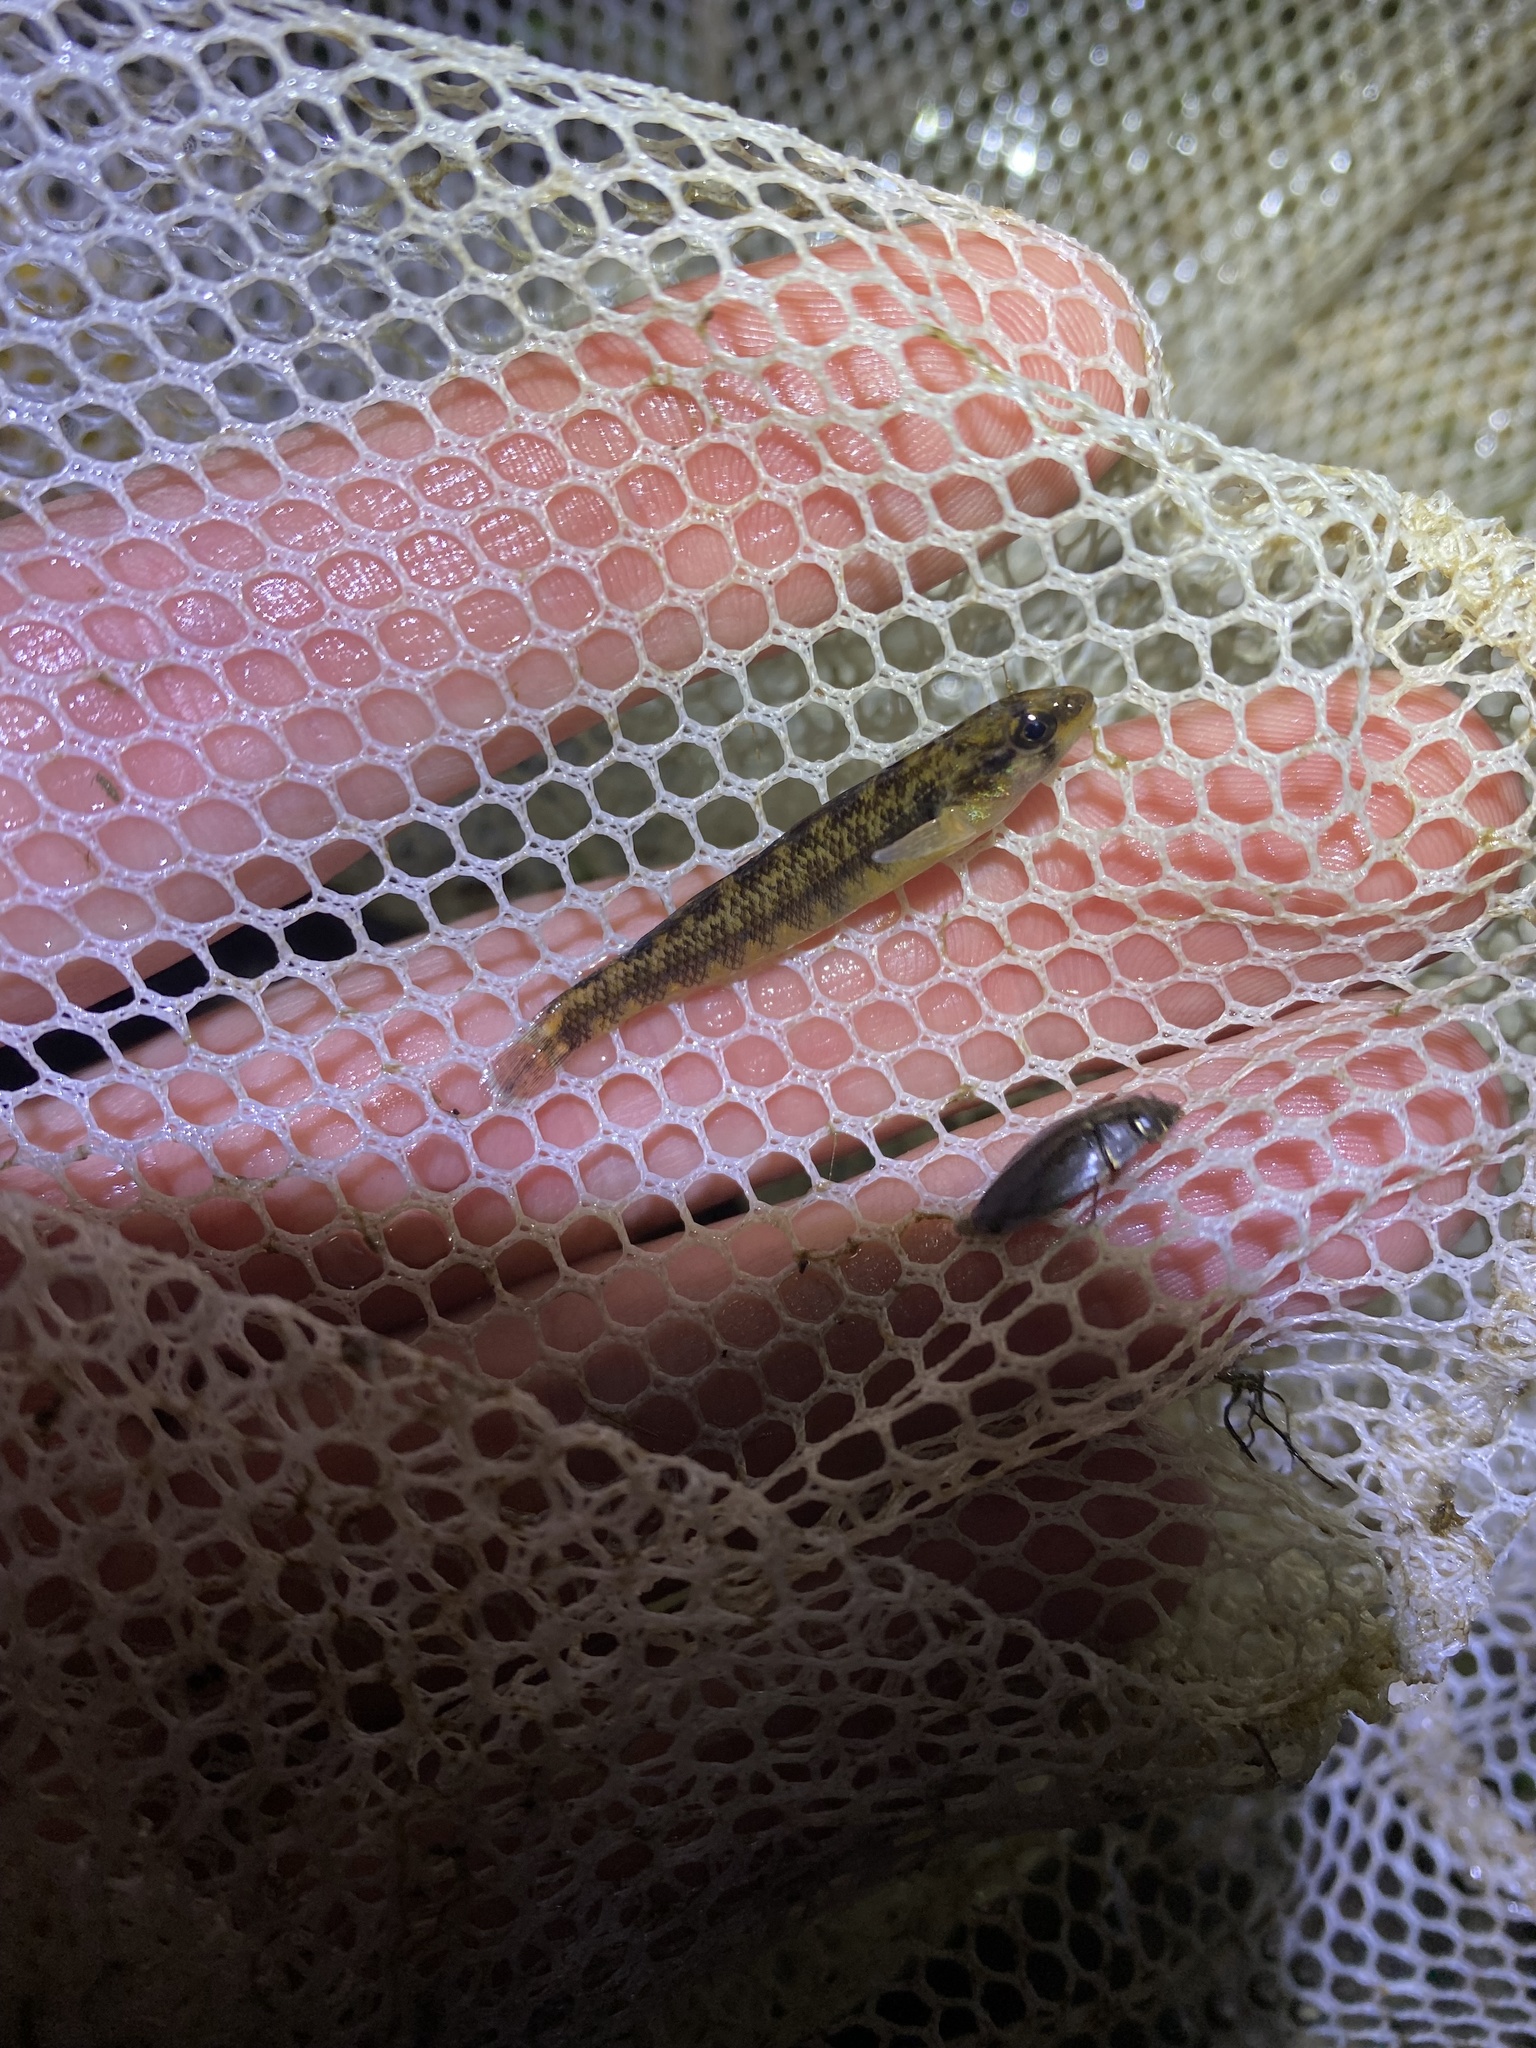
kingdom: Animalia
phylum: Chordata
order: Perciformes
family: Percidae
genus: Percina
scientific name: Percina roanoka
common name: Roanoke darter
